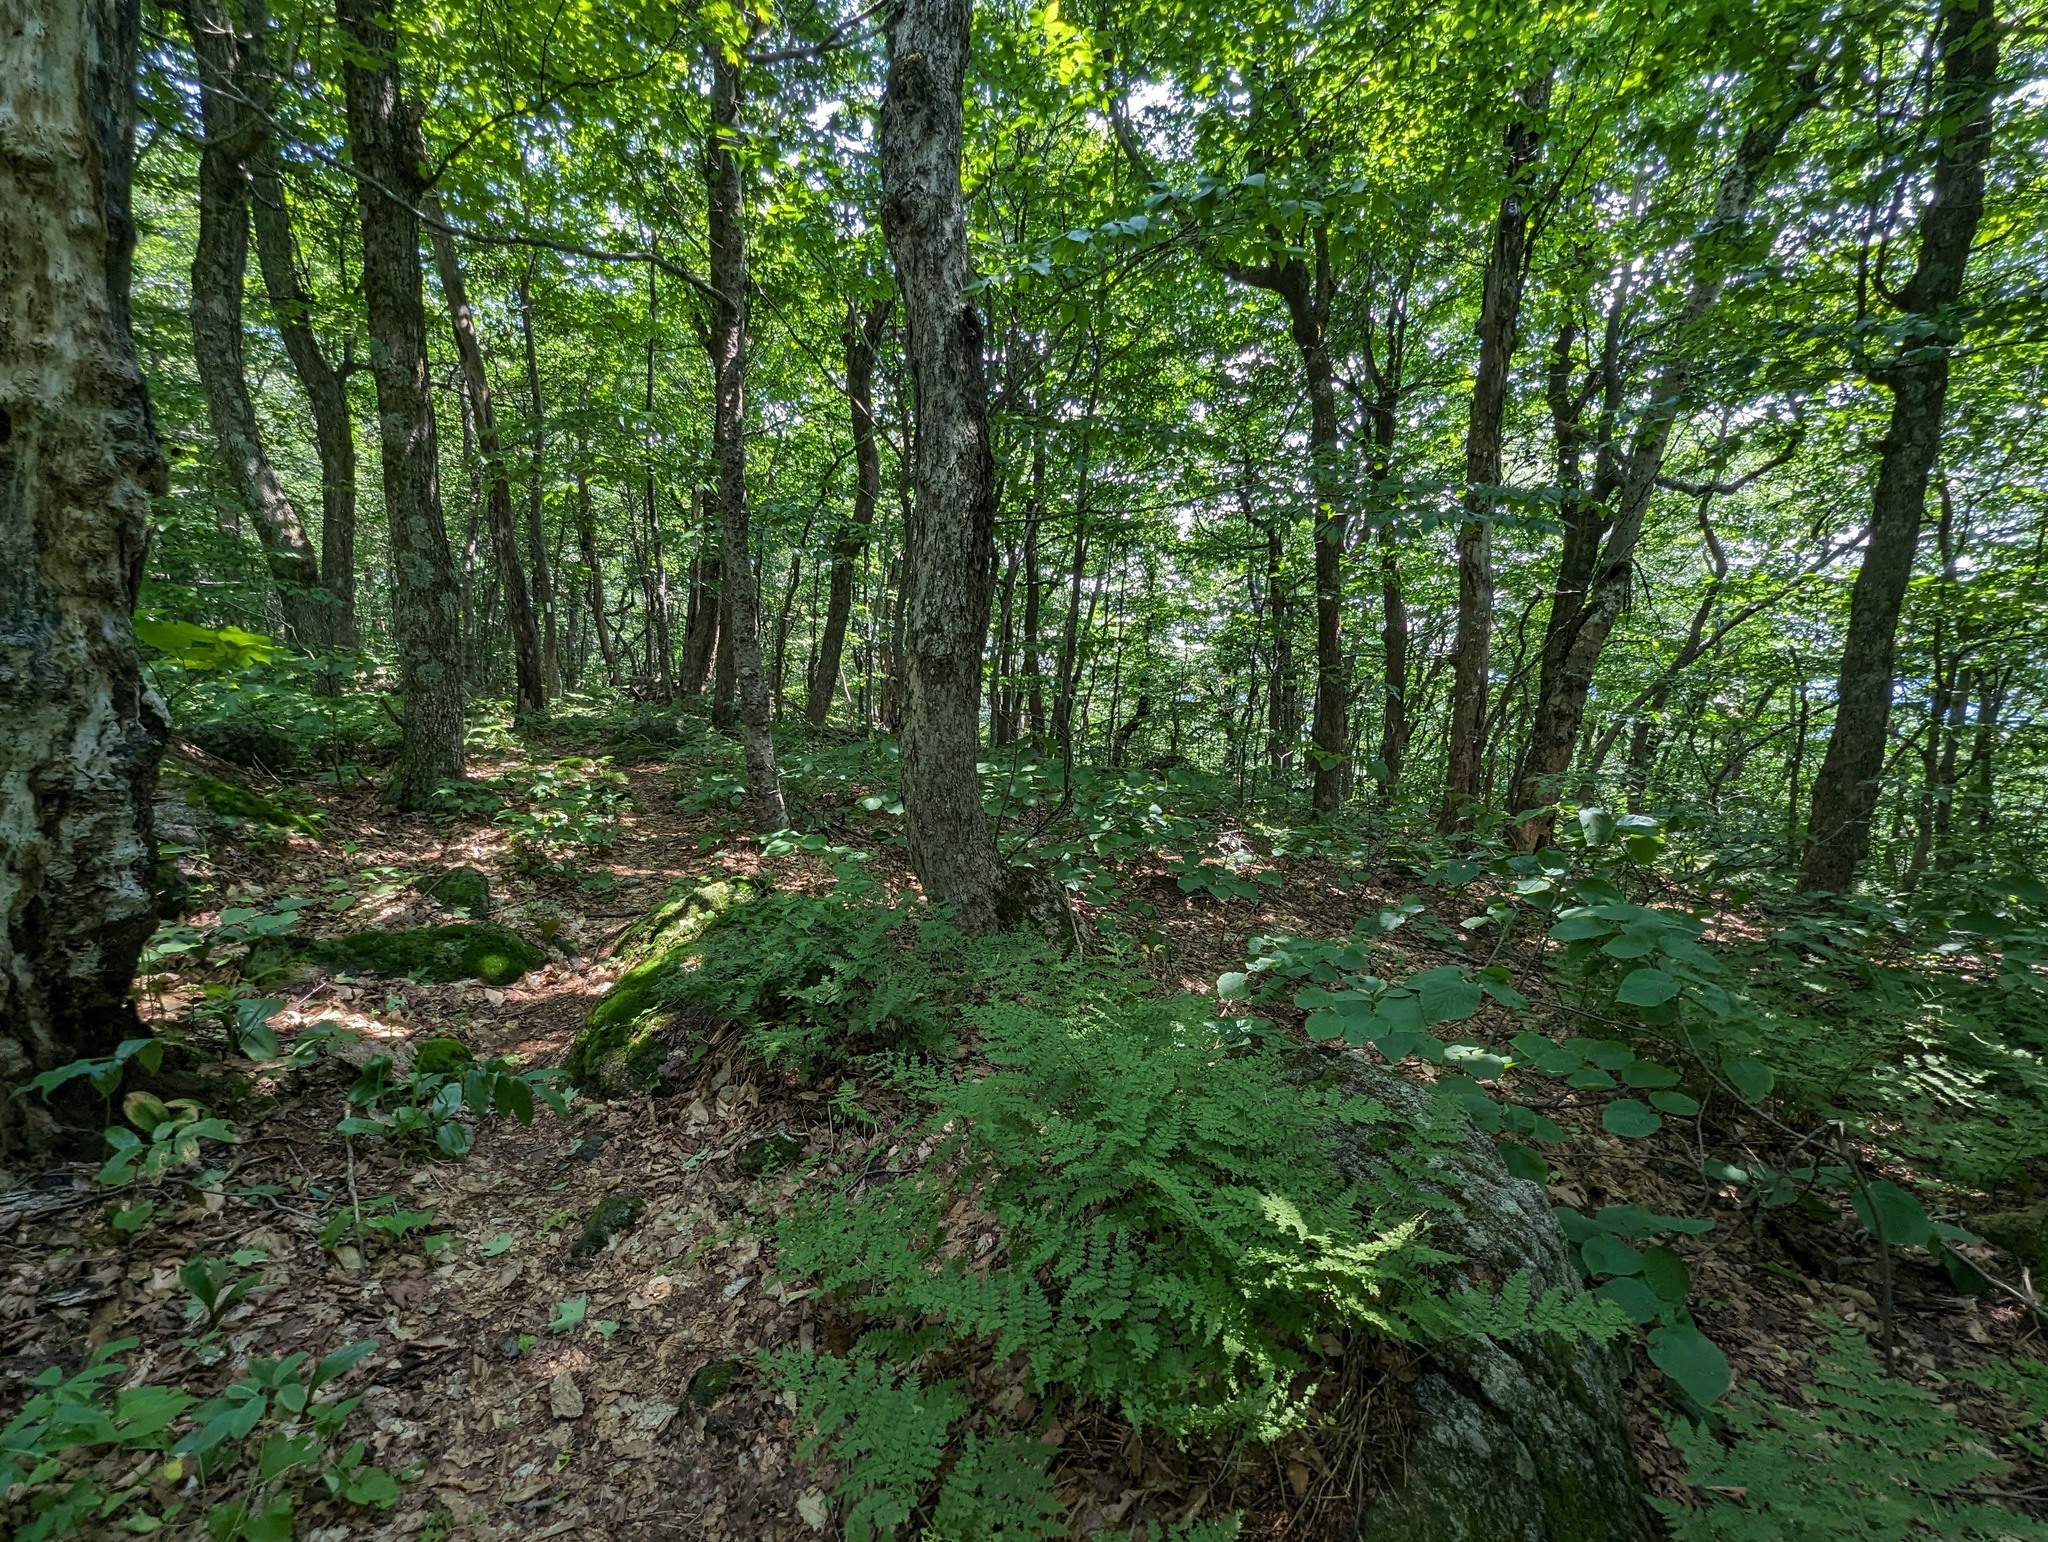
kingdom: Plantae
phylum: Tracheophyta
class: Polypodiopsida
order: Polypodiales
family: Dryopteridaceae
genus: Dryopteris
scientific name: Dryopteris intermedia
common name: Evergreen wood fern
